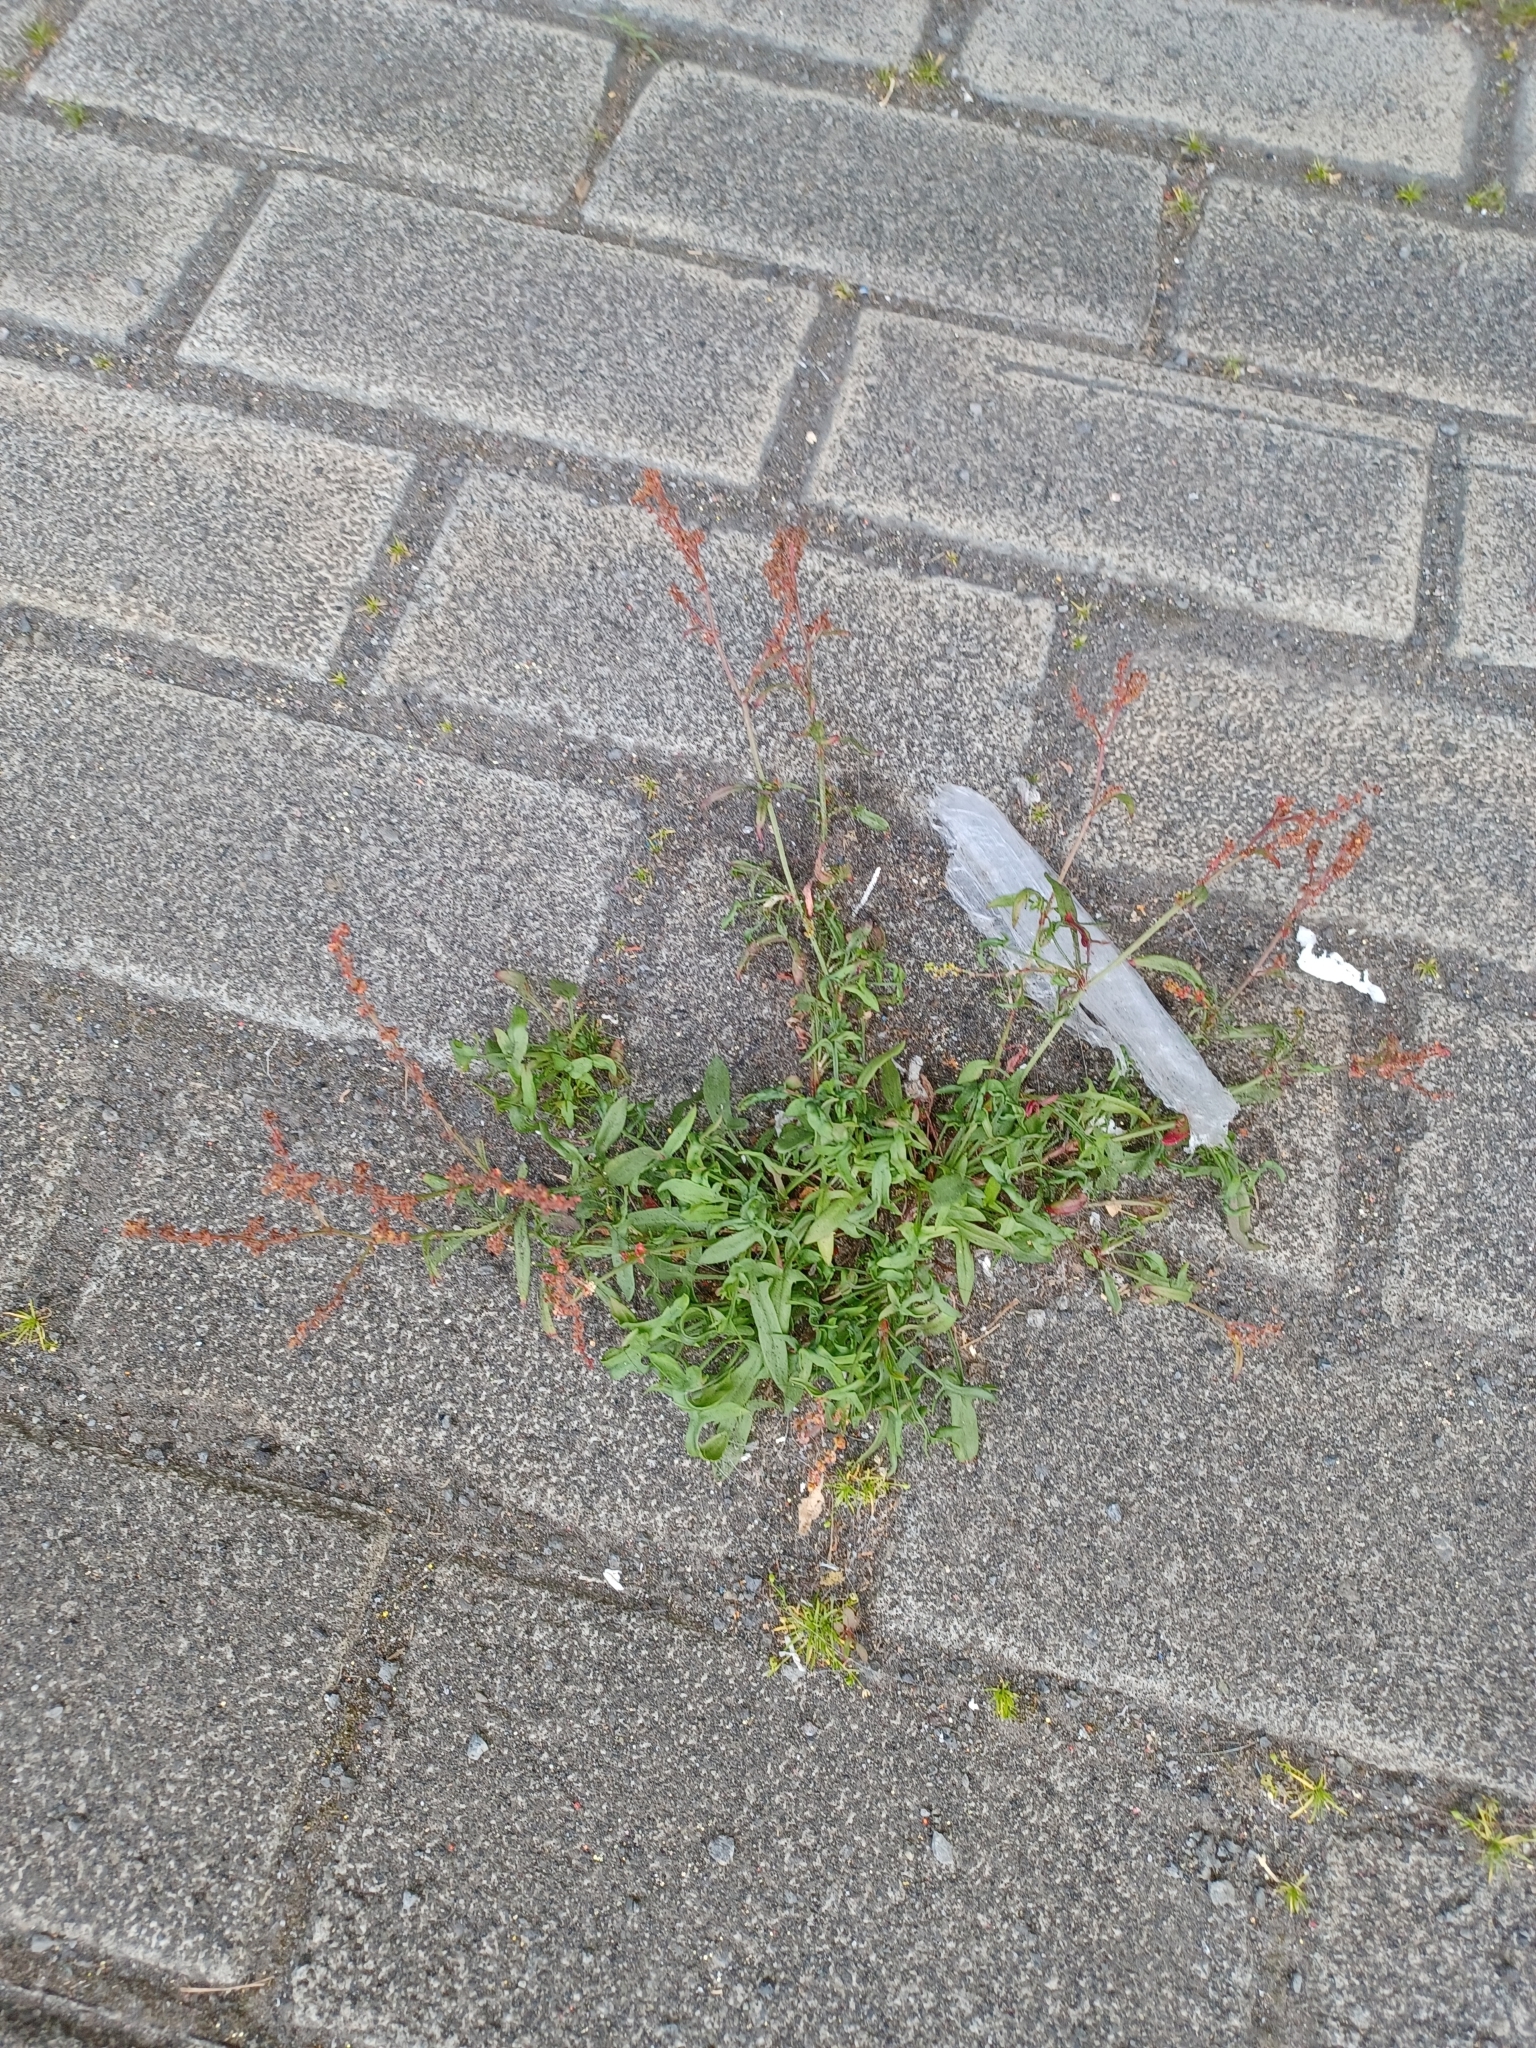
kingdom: Plantae
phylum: Tracheophyta
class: Magnoliopsida
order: Caryophyllales
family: Polygonaceae
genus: Rumex
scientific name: Rumex acetosella
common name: Common sheep sorrel
